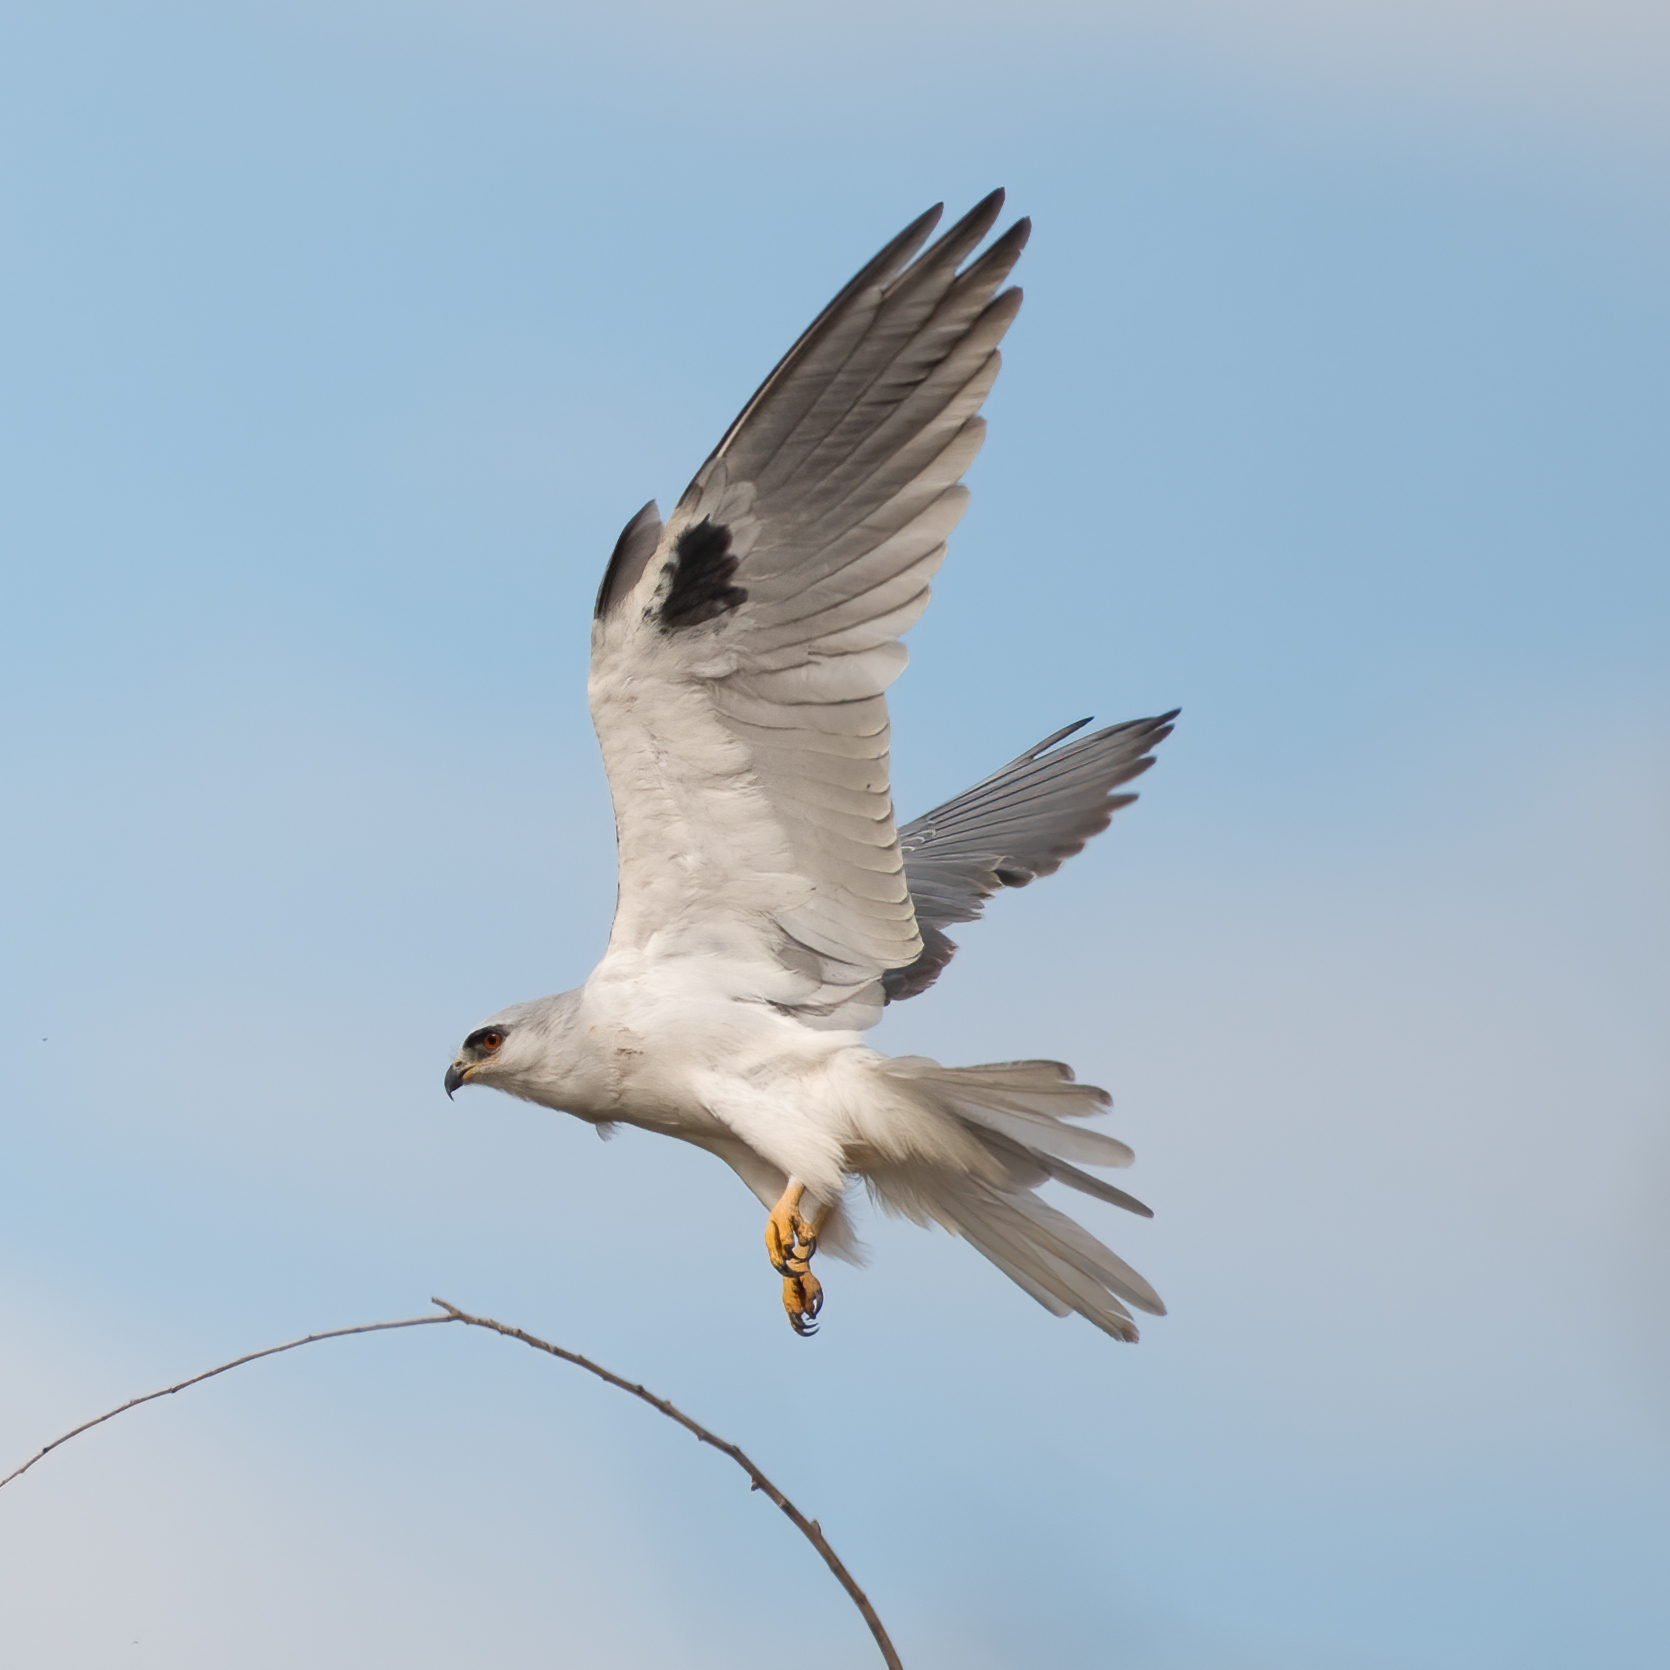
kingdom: Animalia
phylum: Chordata
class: Aves
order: Accipitriformes
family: Accipitridae
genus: Elanus
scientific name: Elanus leucurus
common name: White-tailed kite
